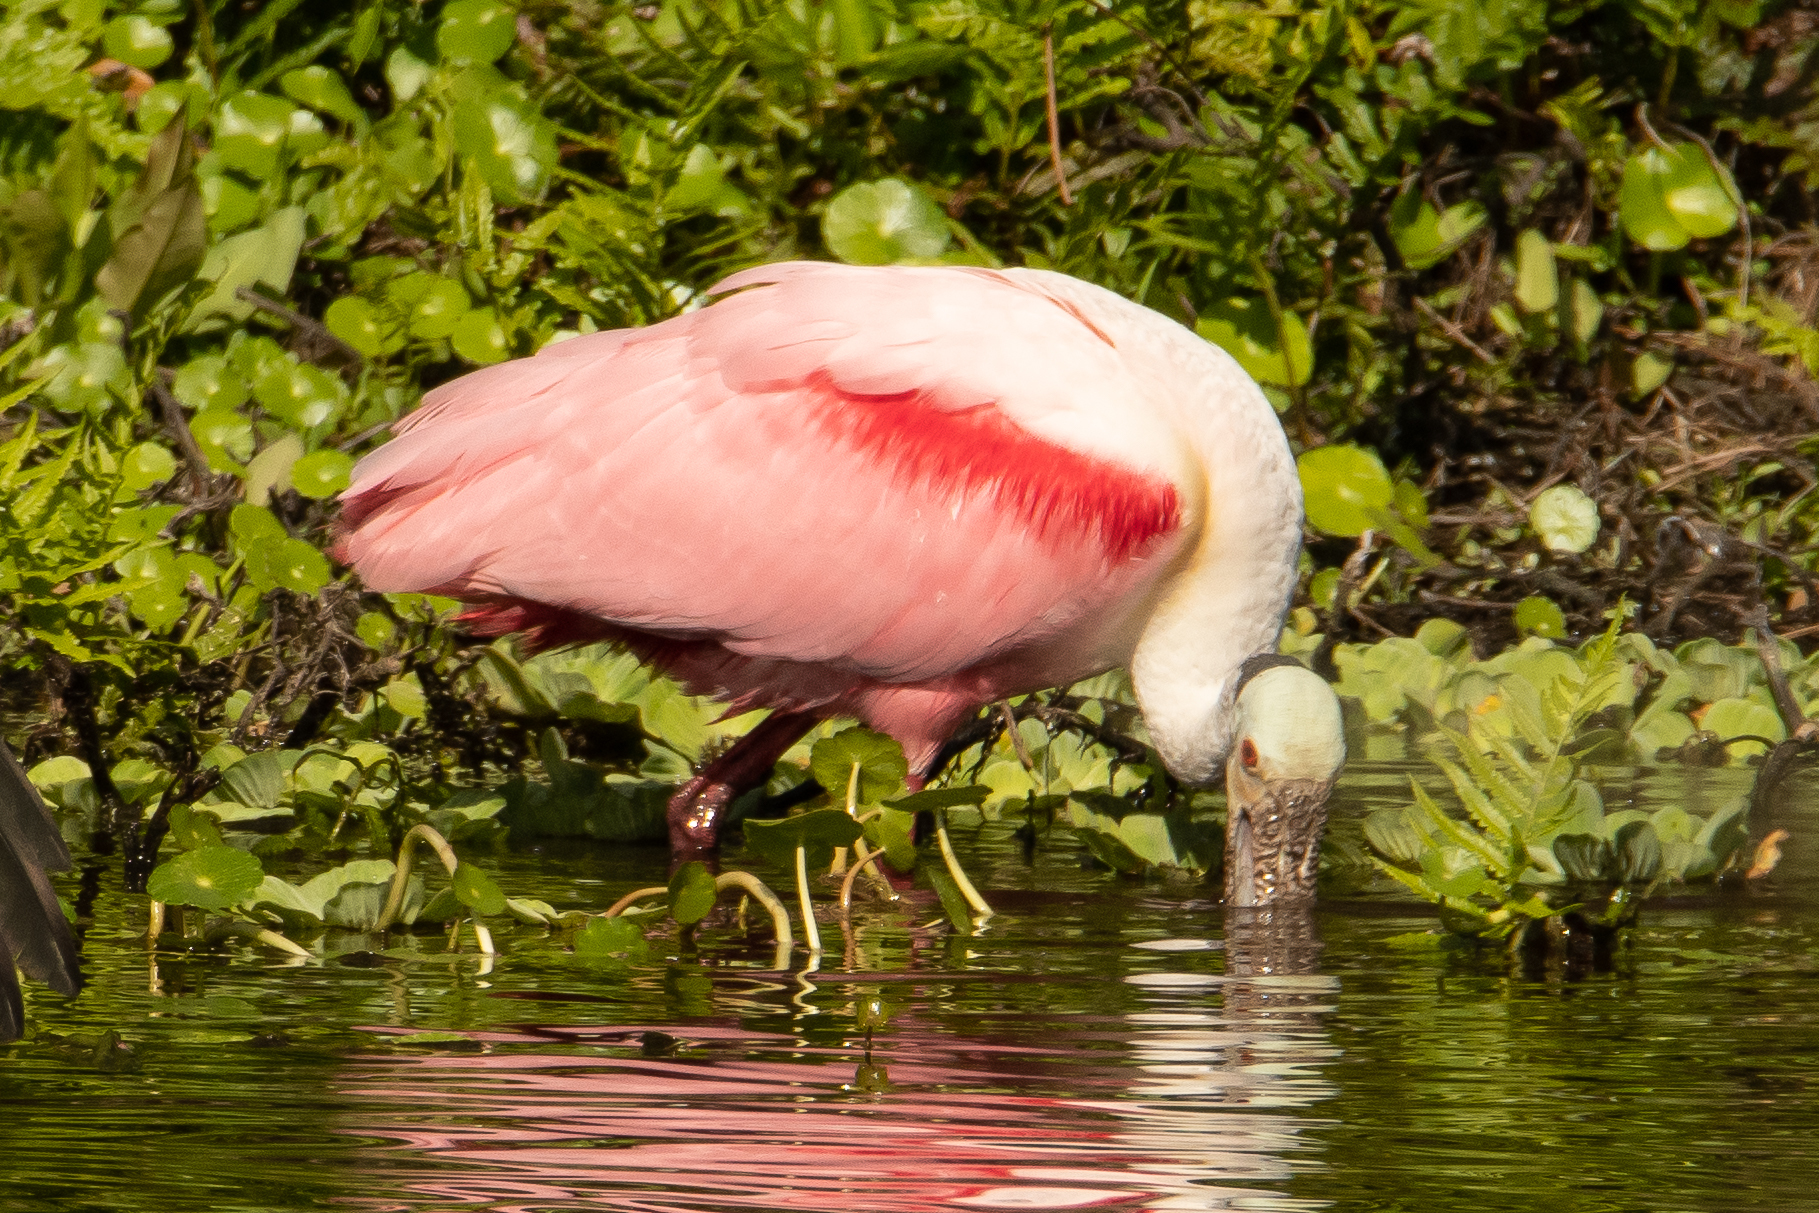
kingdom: Animalia
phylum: Chordata
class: Aves
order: Pelecaniformes
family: Threskiornithidae
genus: Platalea
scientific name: Platalea ajaja
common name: Roseate spoonbill
